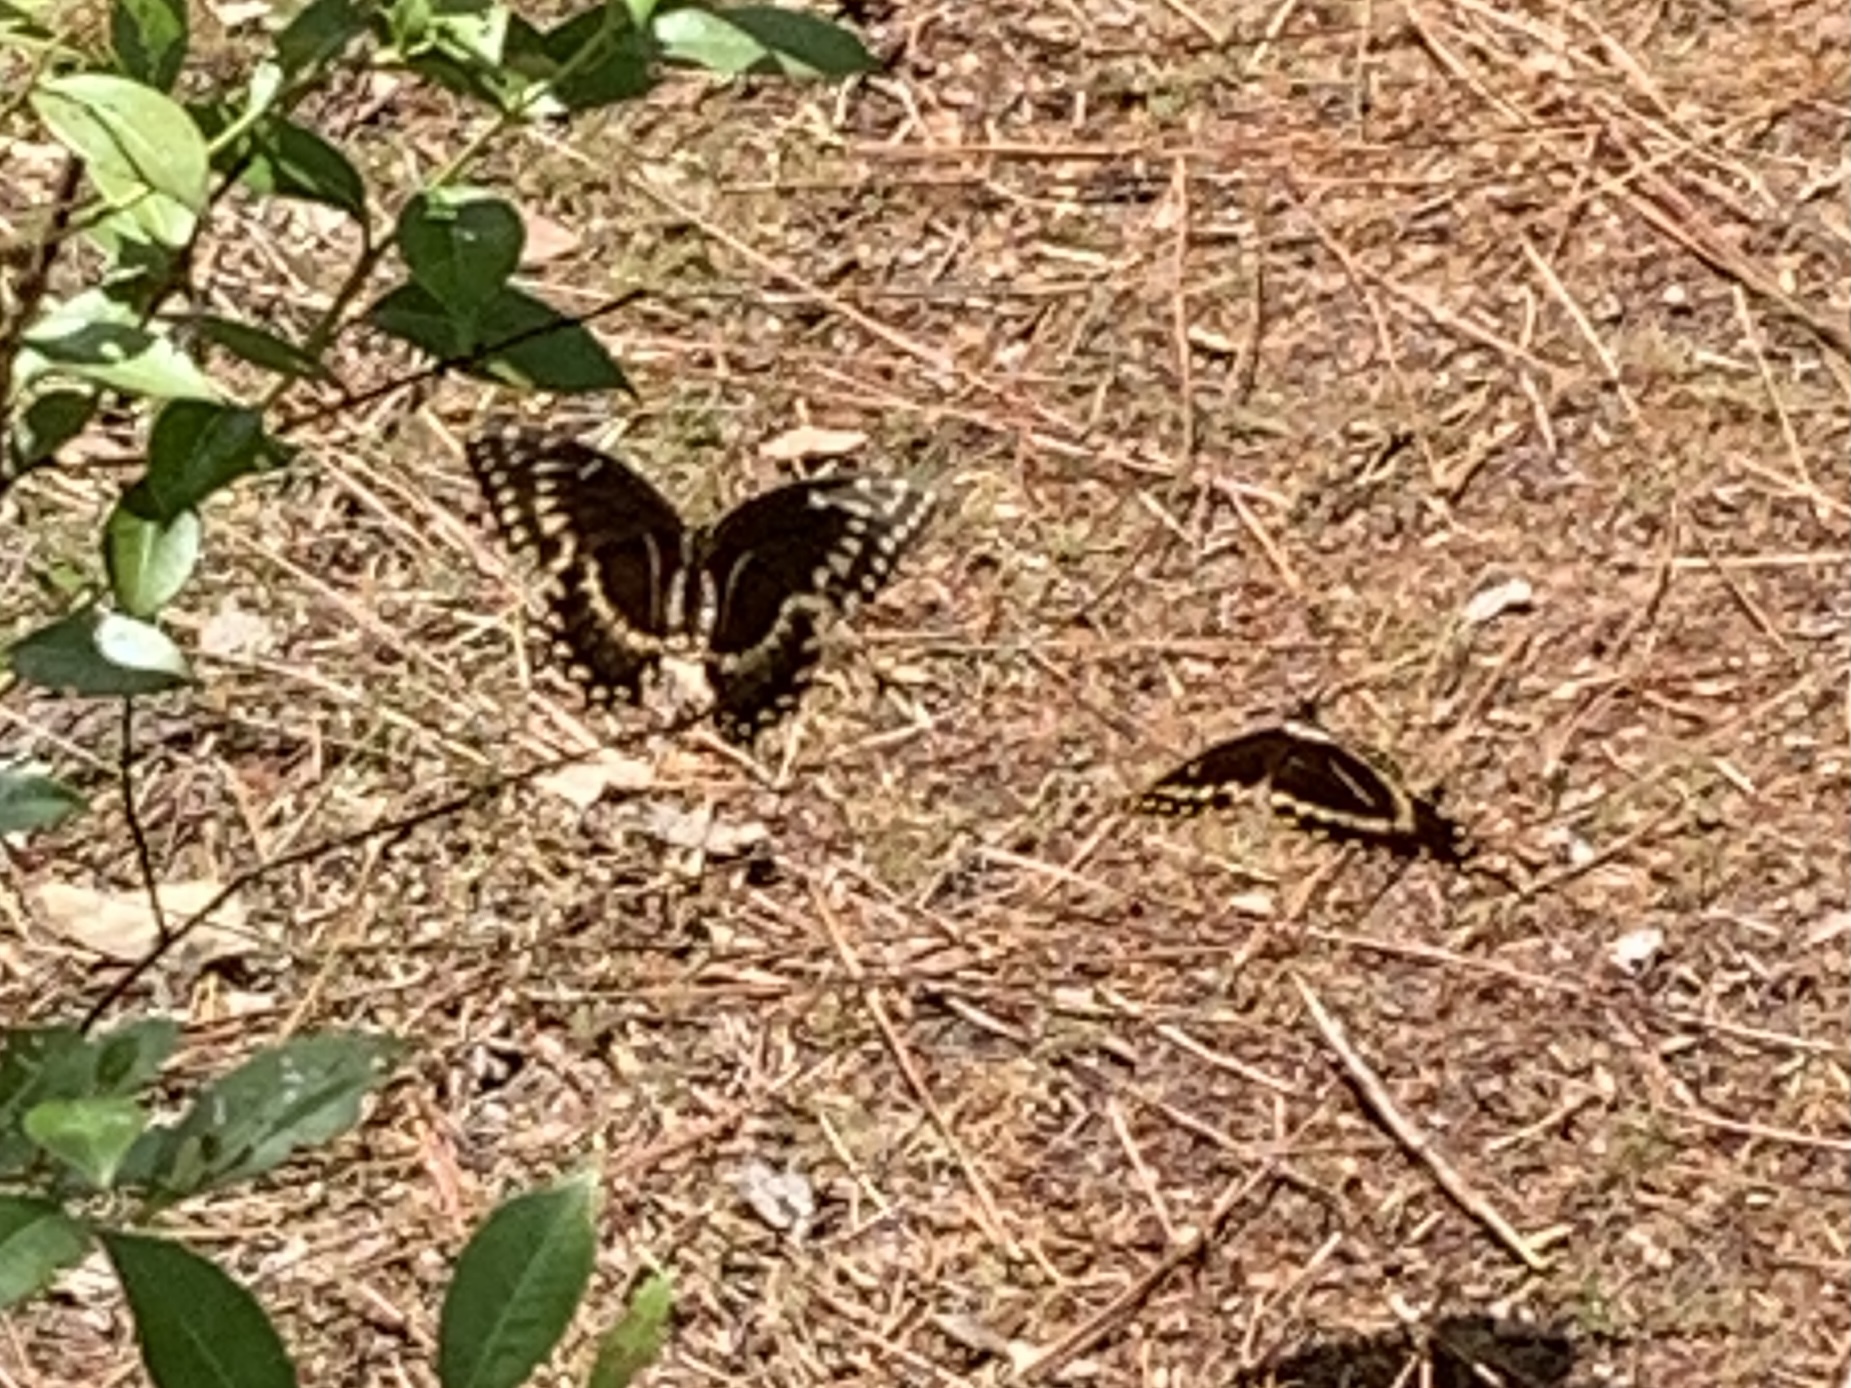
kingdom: Animalia
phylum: Arthropoda
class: Insecta
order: Lepidoptera
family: Papilionidae
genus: Papilio
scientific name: Papilio palamedes
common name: Palamedes swallowtail
